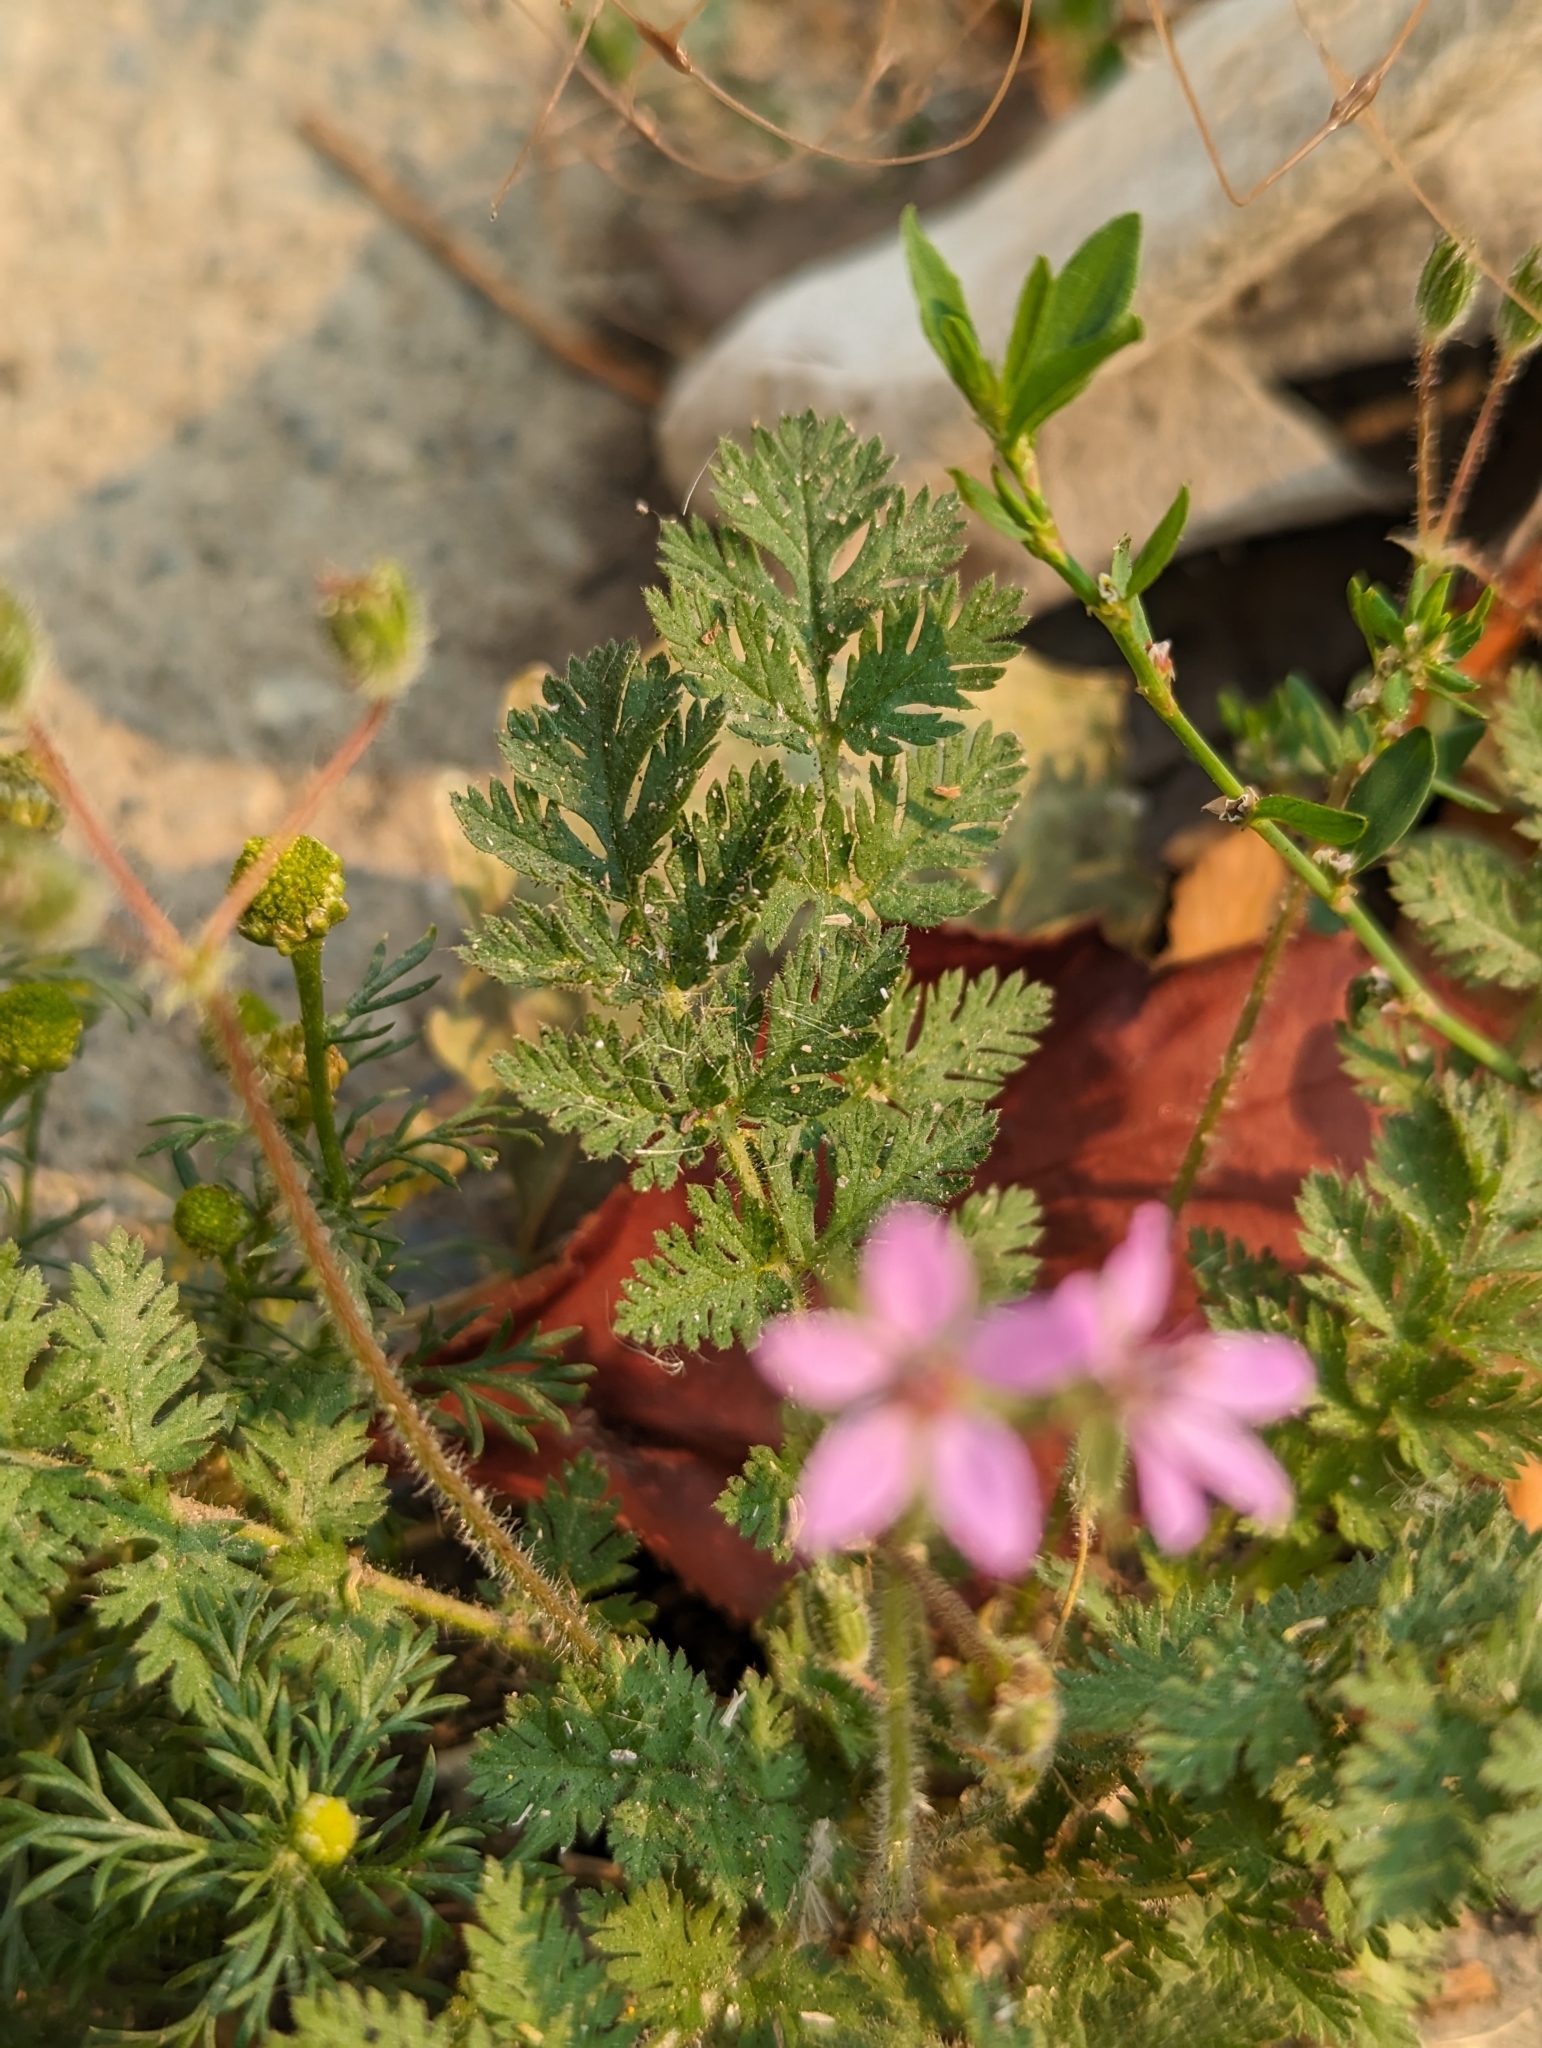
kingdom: Plantae
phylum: Tracheophyta
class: Magnoliopsida
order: Geraniales
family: Geraniaceae
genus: Erodium
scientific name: Erodium cicutarium
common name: Common stork's-bill
